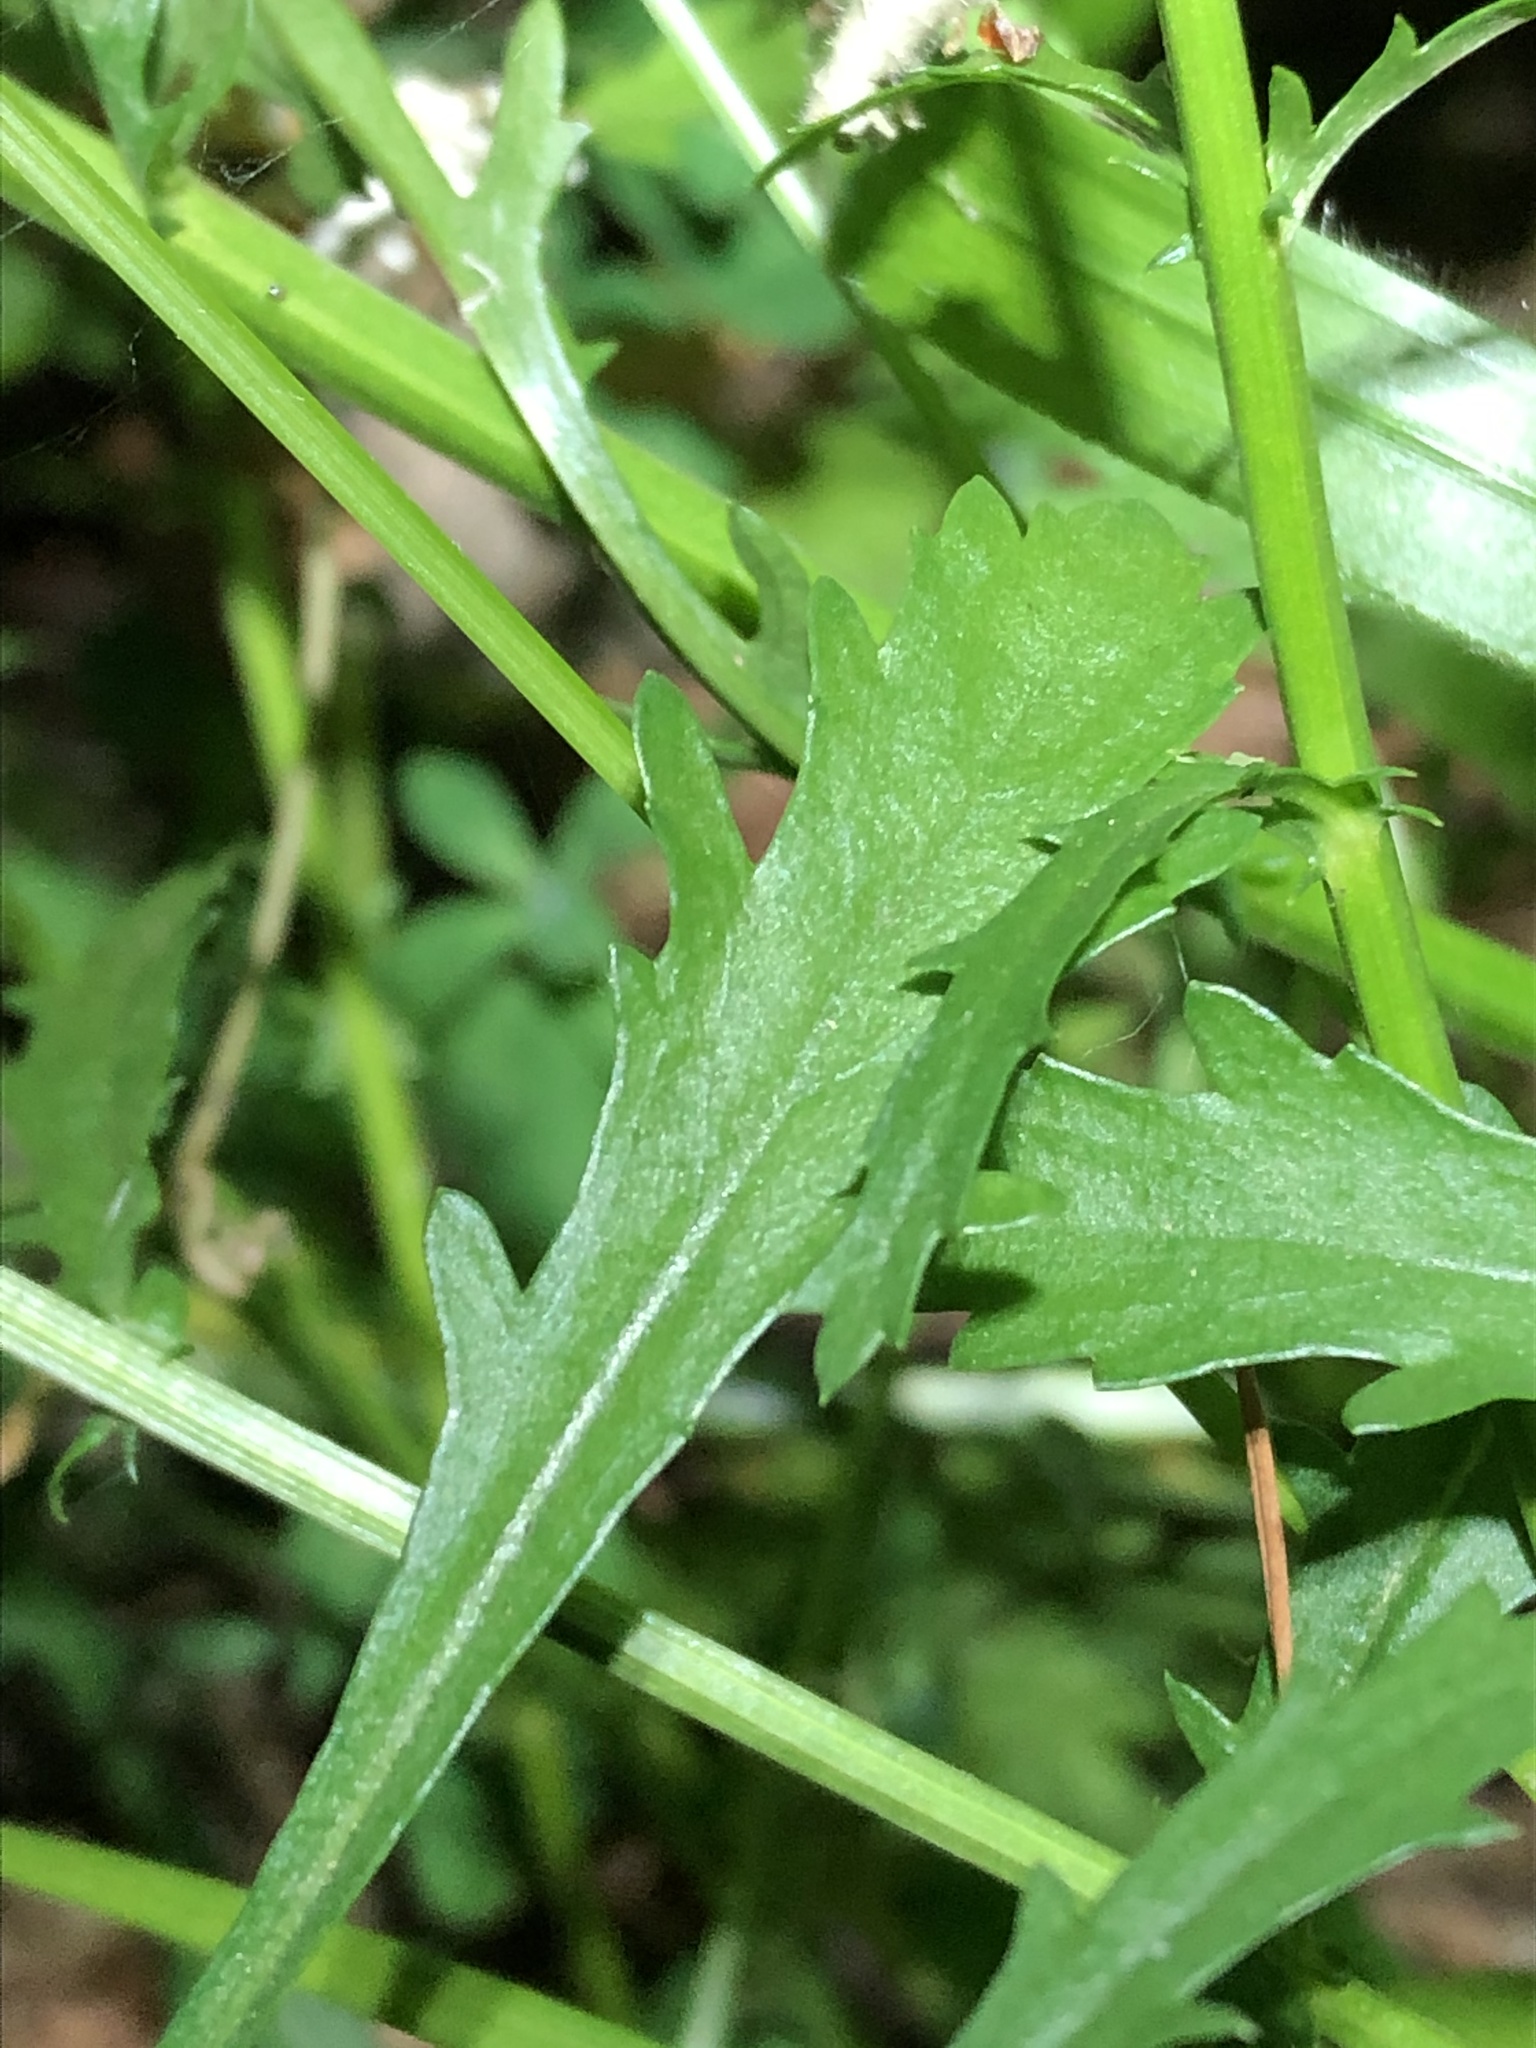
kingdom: Plantae
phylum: Tracheophyta
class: Magnoliopsida
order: Asterales
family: Asteraceae
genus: Leucanthemum
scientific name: Leucanthemum vulgare
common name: Oxeye daisy
